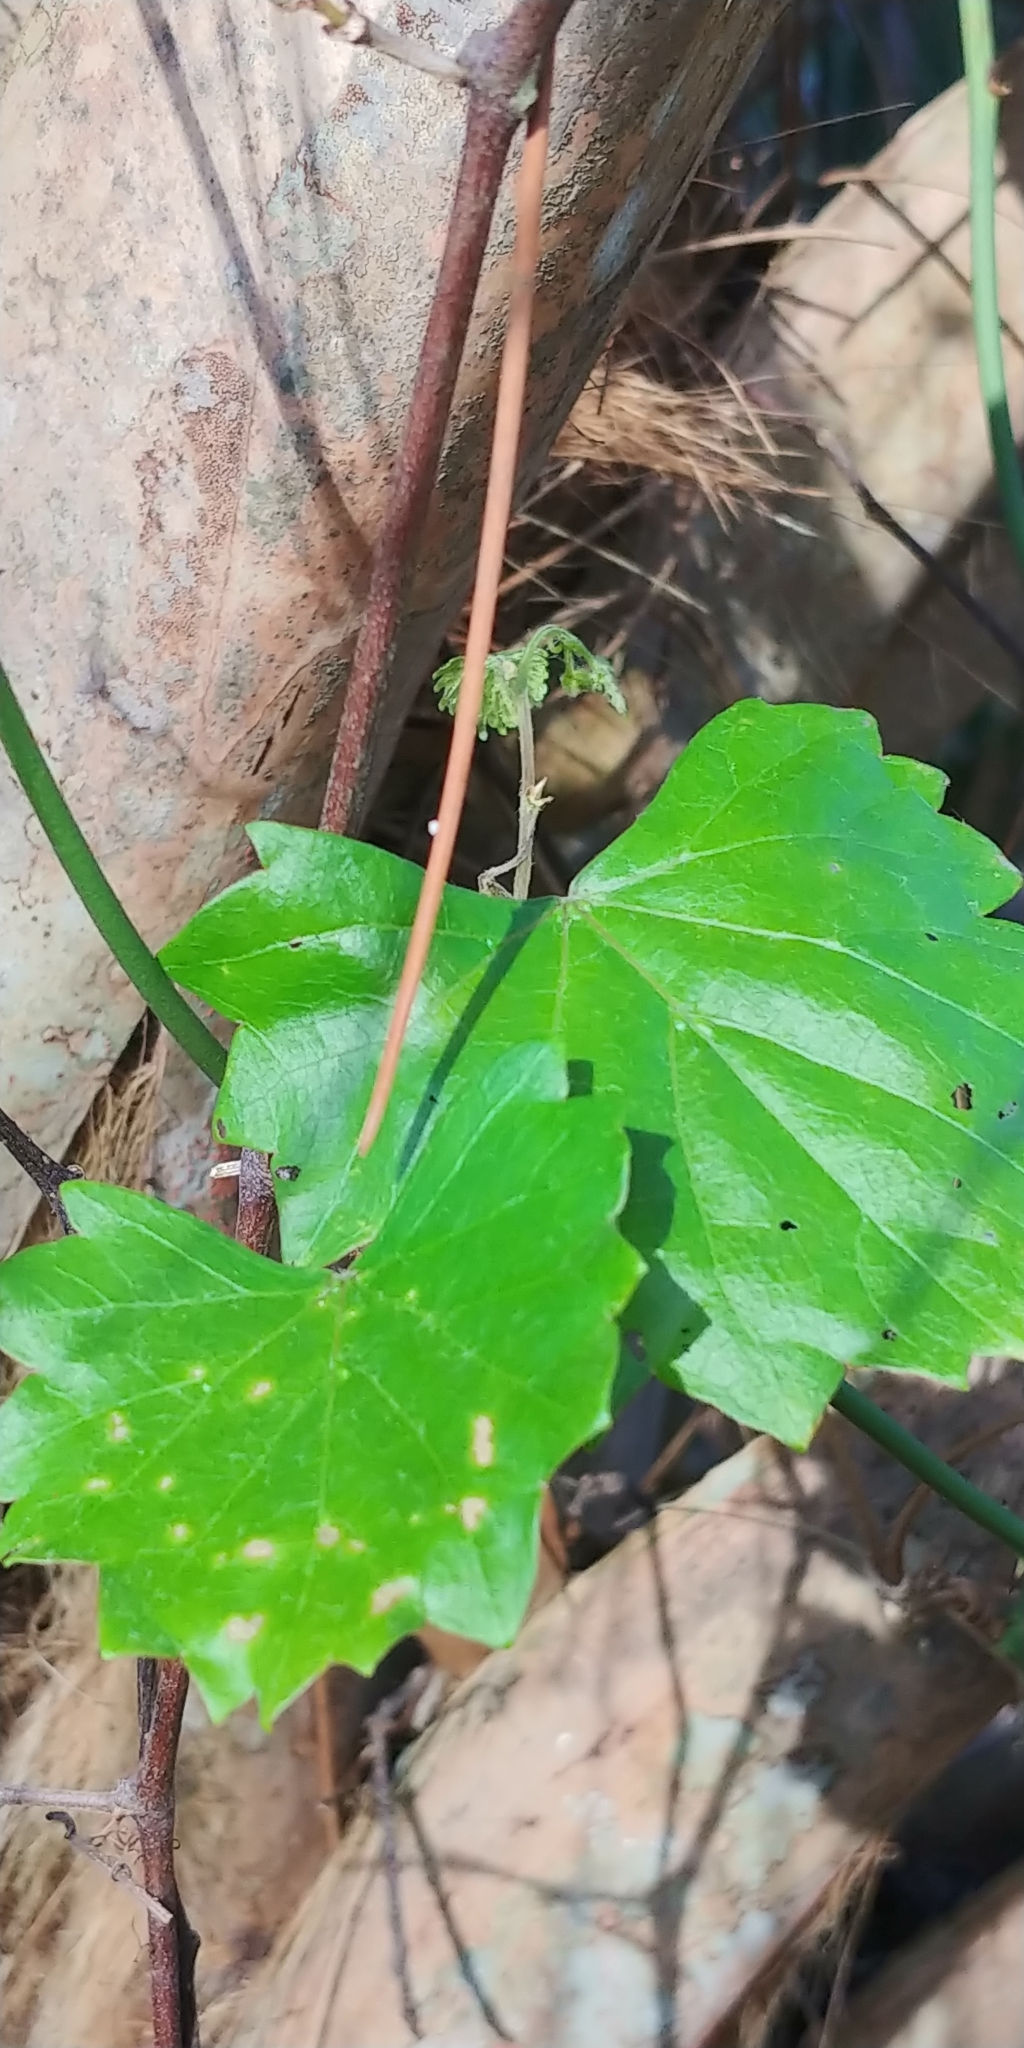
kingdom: Plantae
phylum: Tracheophyta
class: Magnoliopsida
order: Vitales
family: Vitaceae
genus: Vitis
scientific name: Vitis rotundifolia
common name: Muscadine grape
